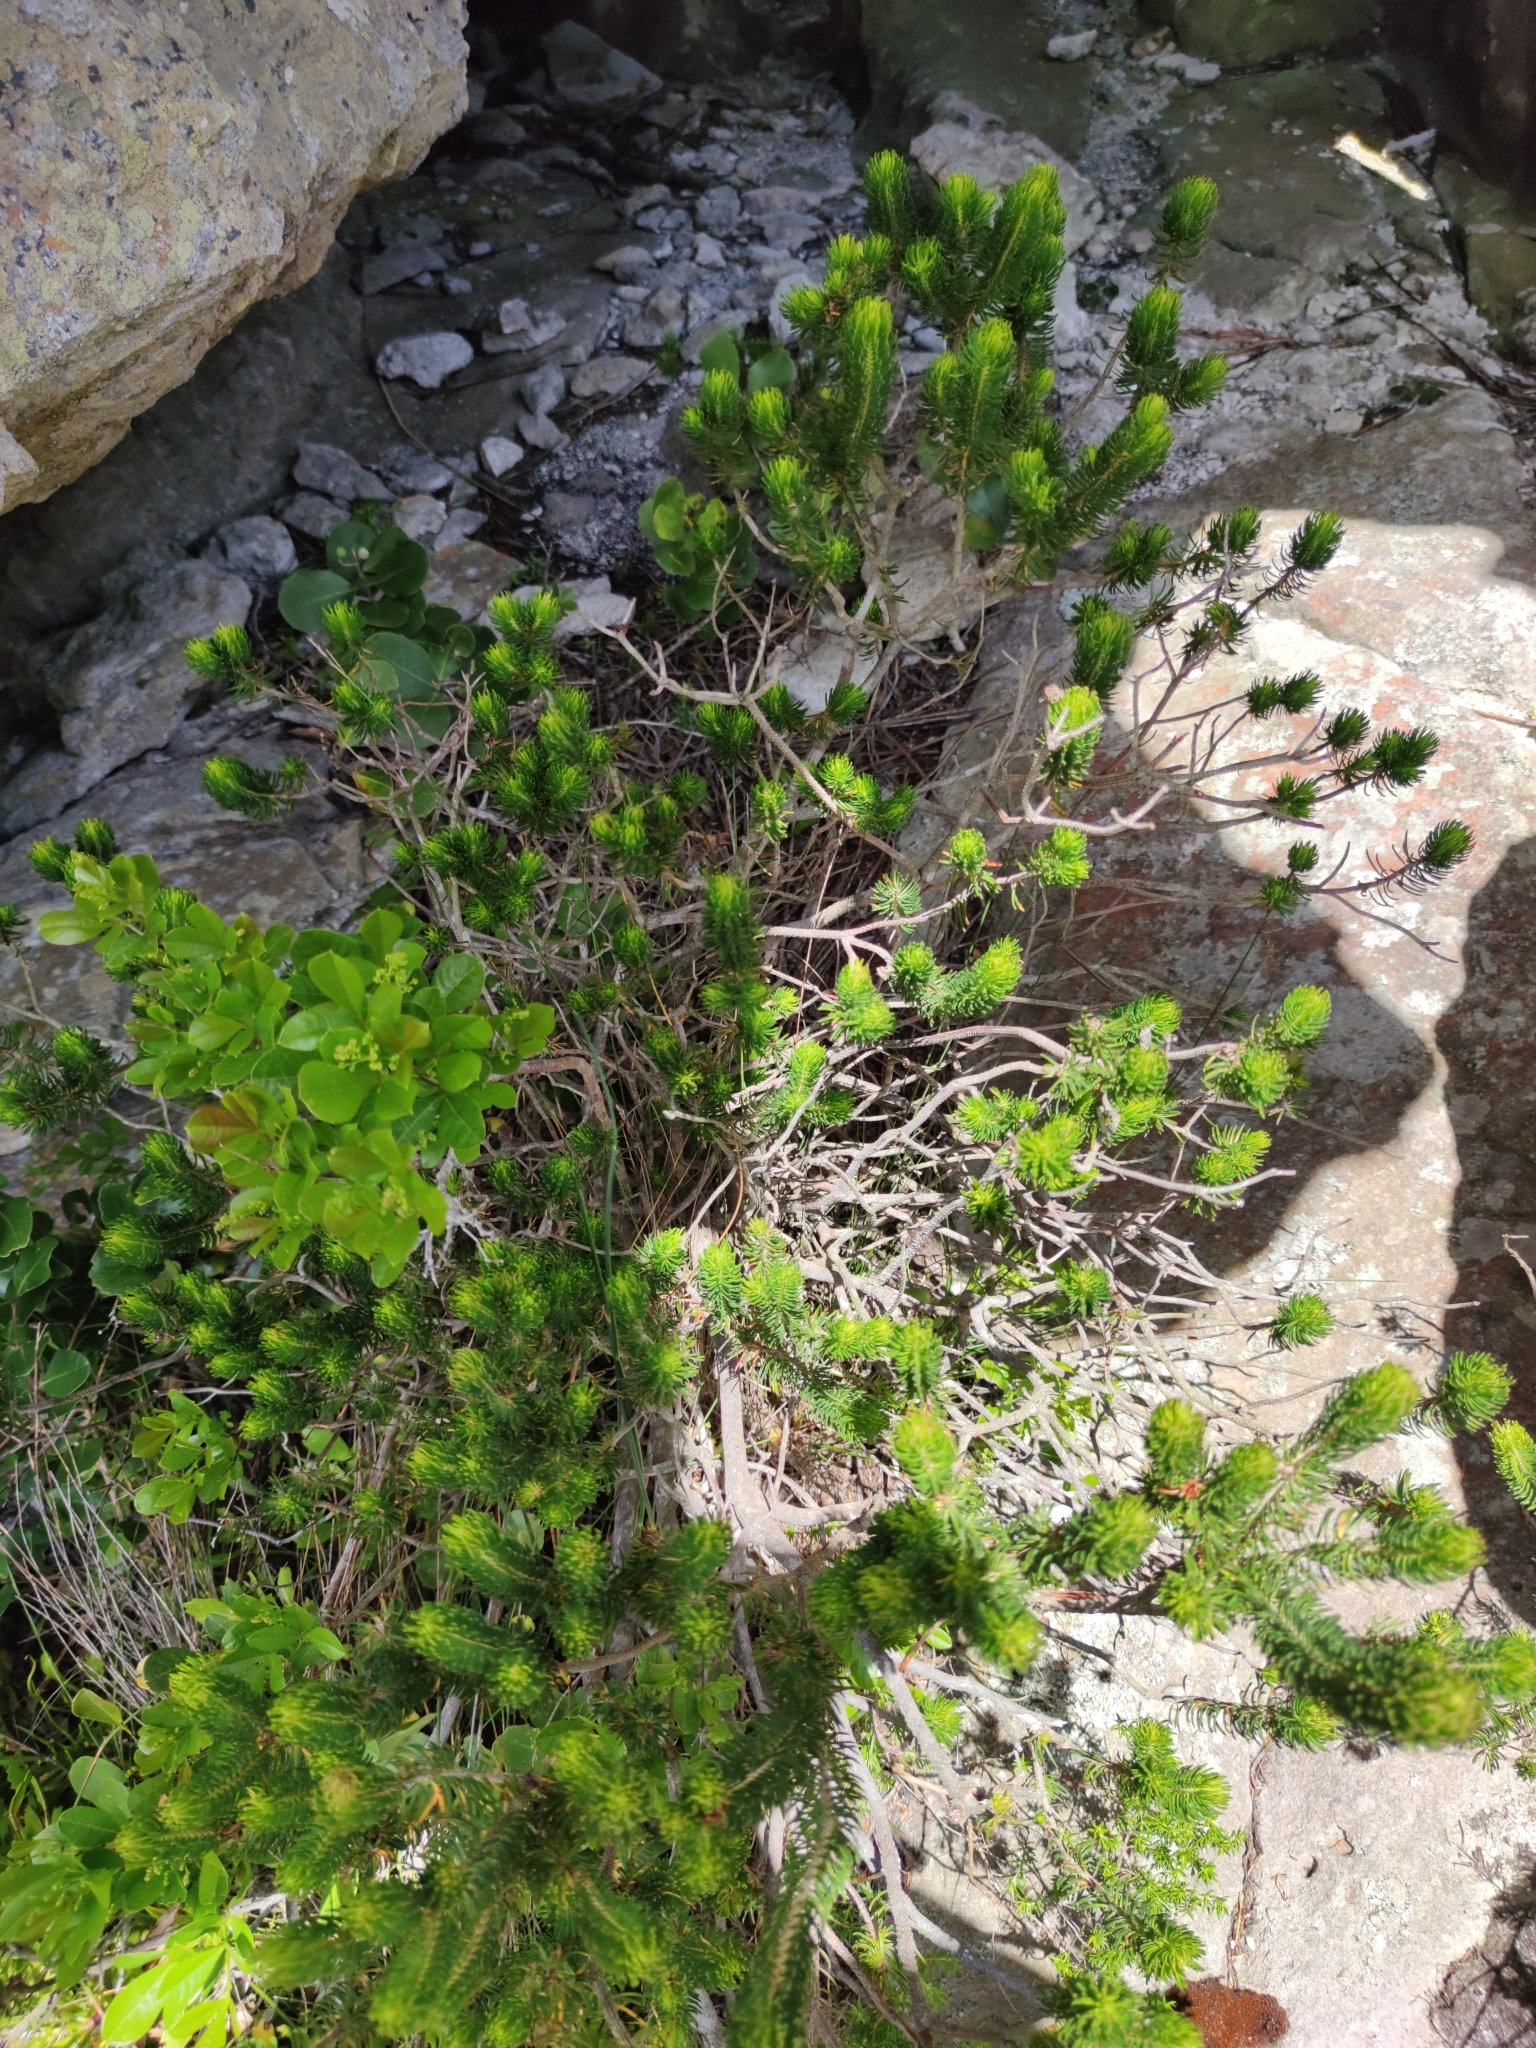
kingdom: Plantae
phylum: Tracheophyta
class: Magnoliopsida
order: Ericales
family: Ericaceae
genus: Erica
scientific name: Erica thomae
